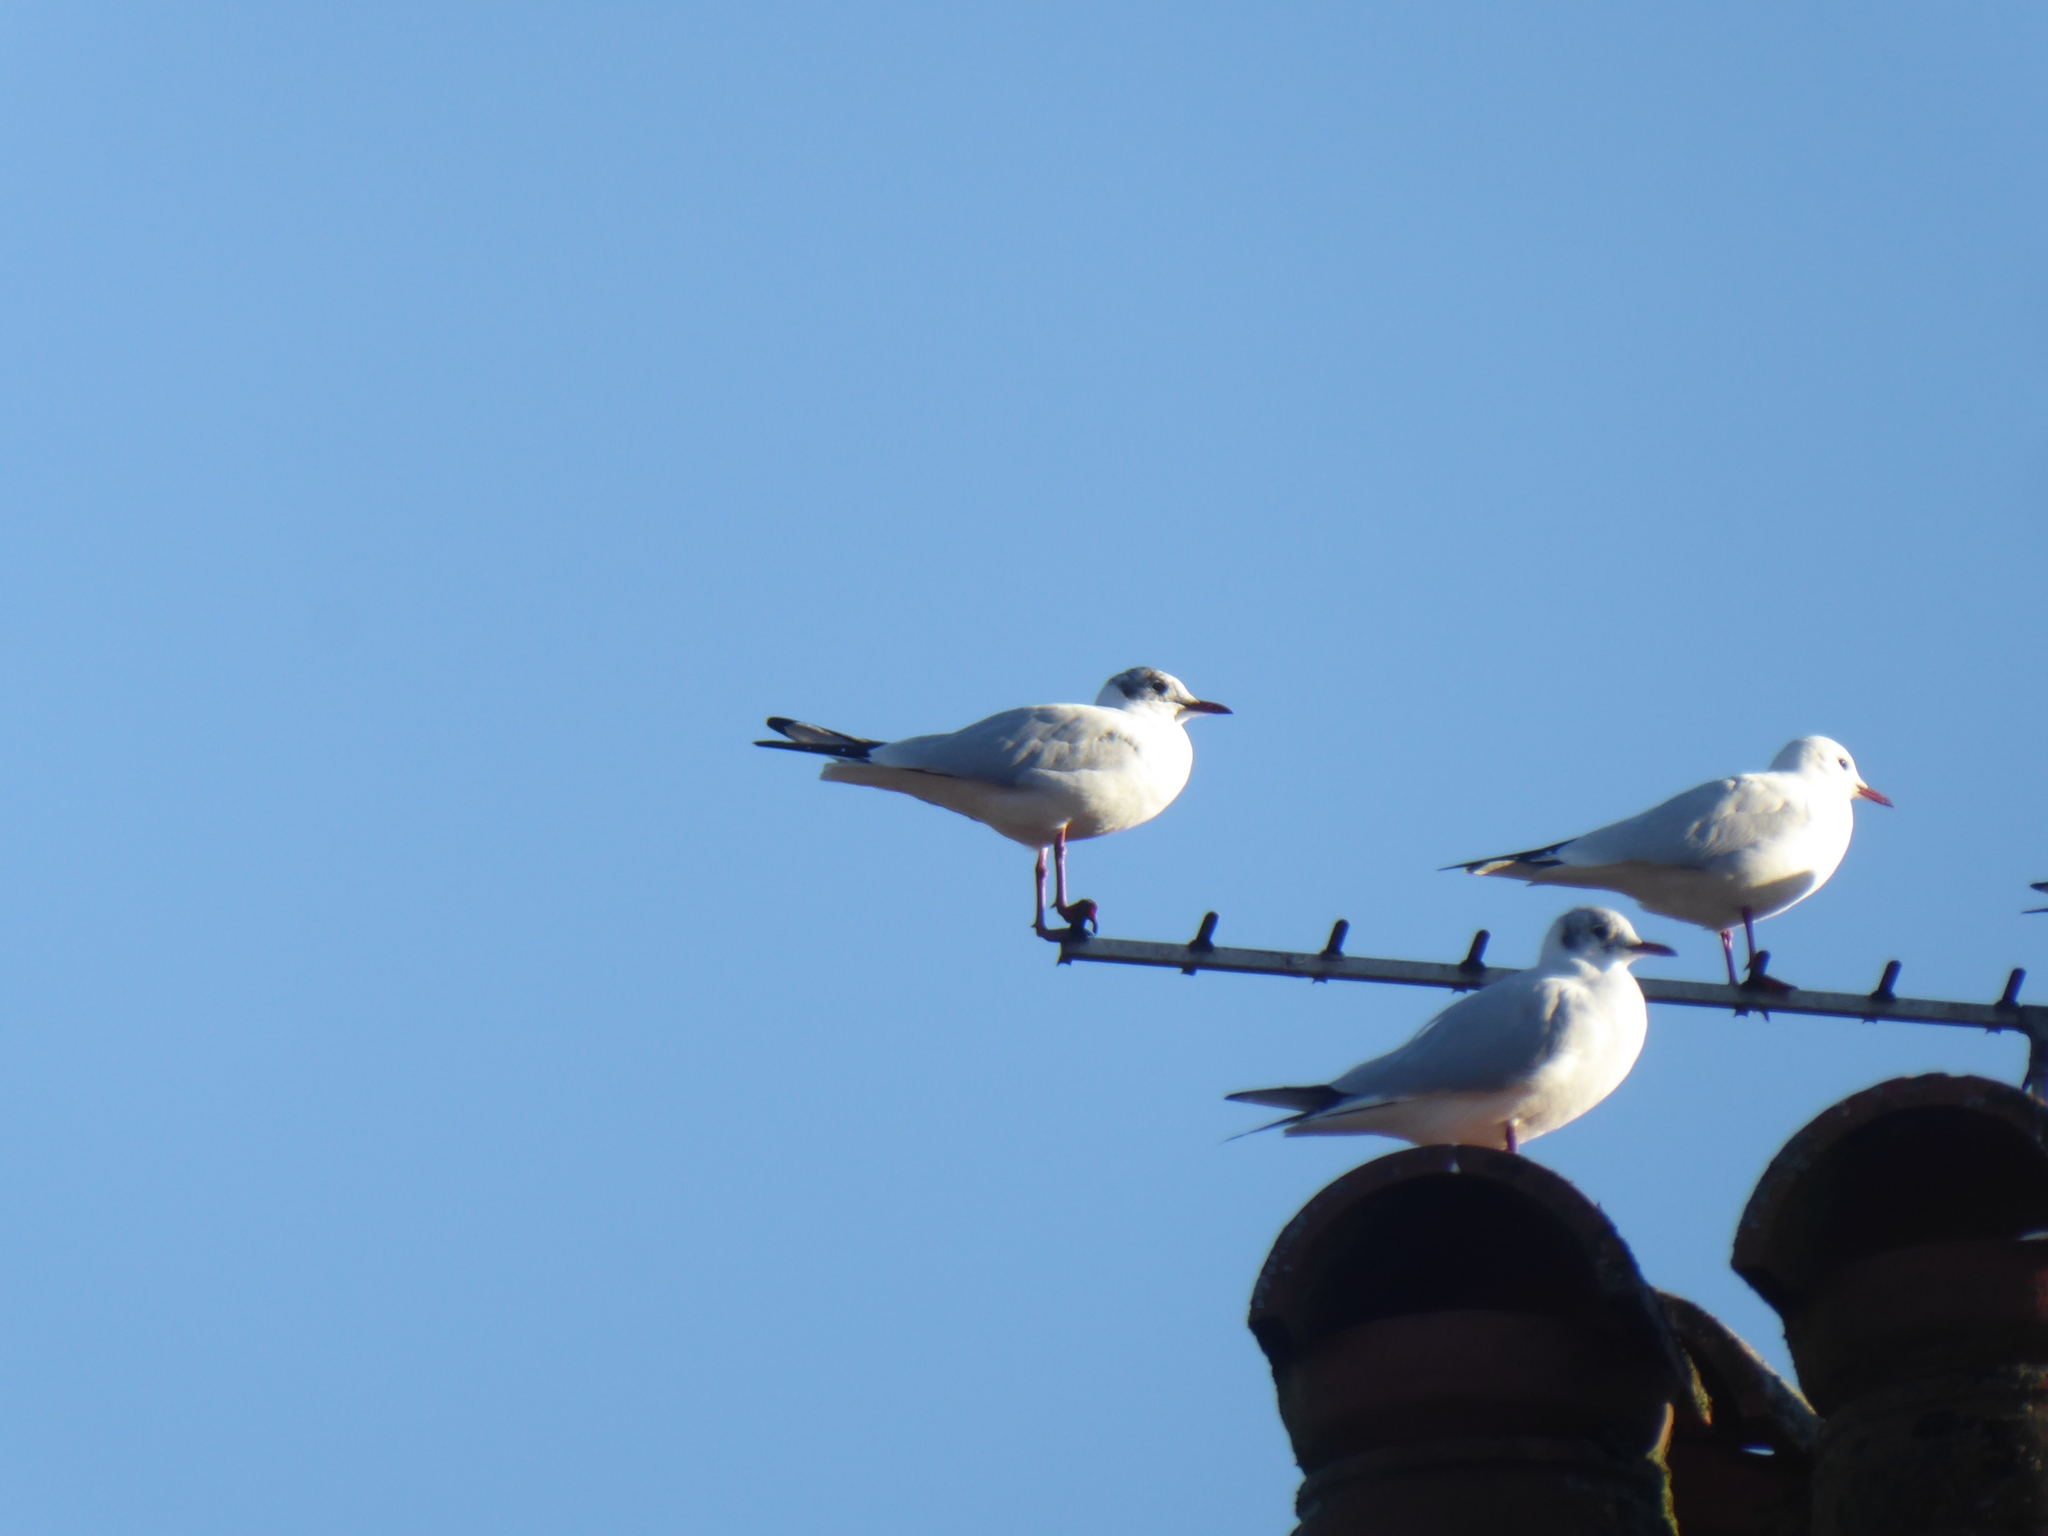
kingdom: Animalia
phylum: Chordata
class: Aves
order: Charadriiformes
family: Laridae
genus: Chroicocephalus
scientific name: Chroicocephalus ridibundus
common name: Black-headed gull
